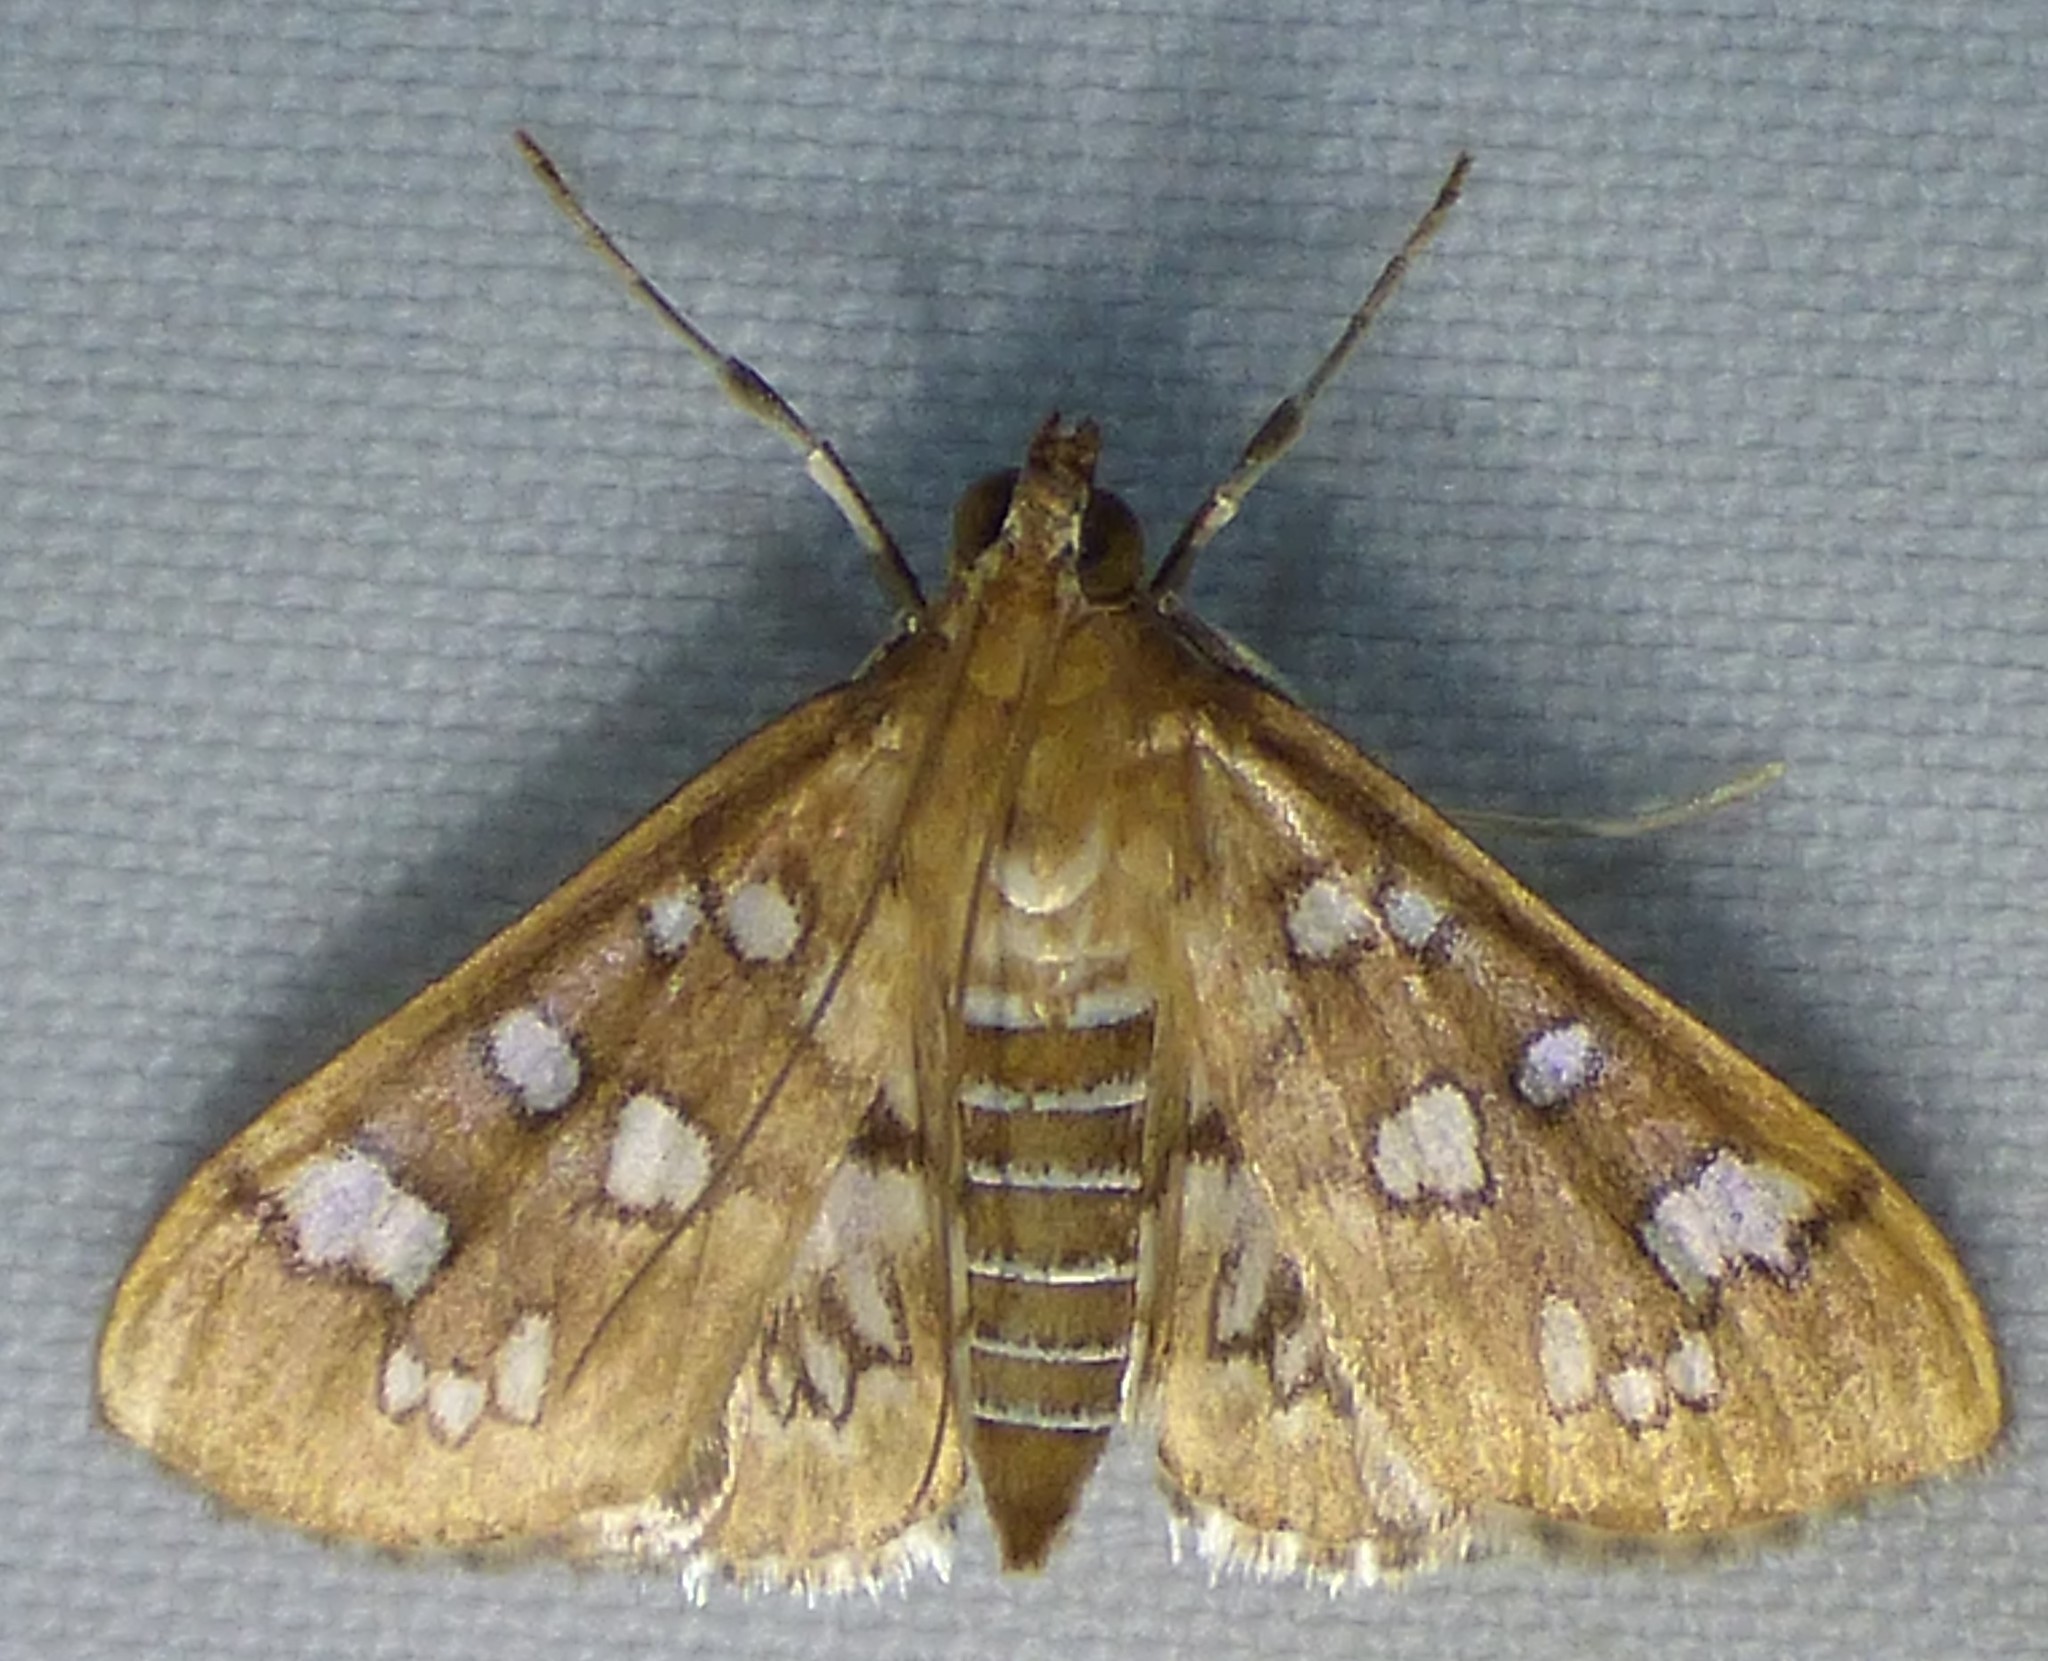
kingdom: Animalia
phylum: Arthropoda
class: Insecta
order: Lepidoptera
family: Crambidae
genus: Samea
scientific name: Samea baccatalis
